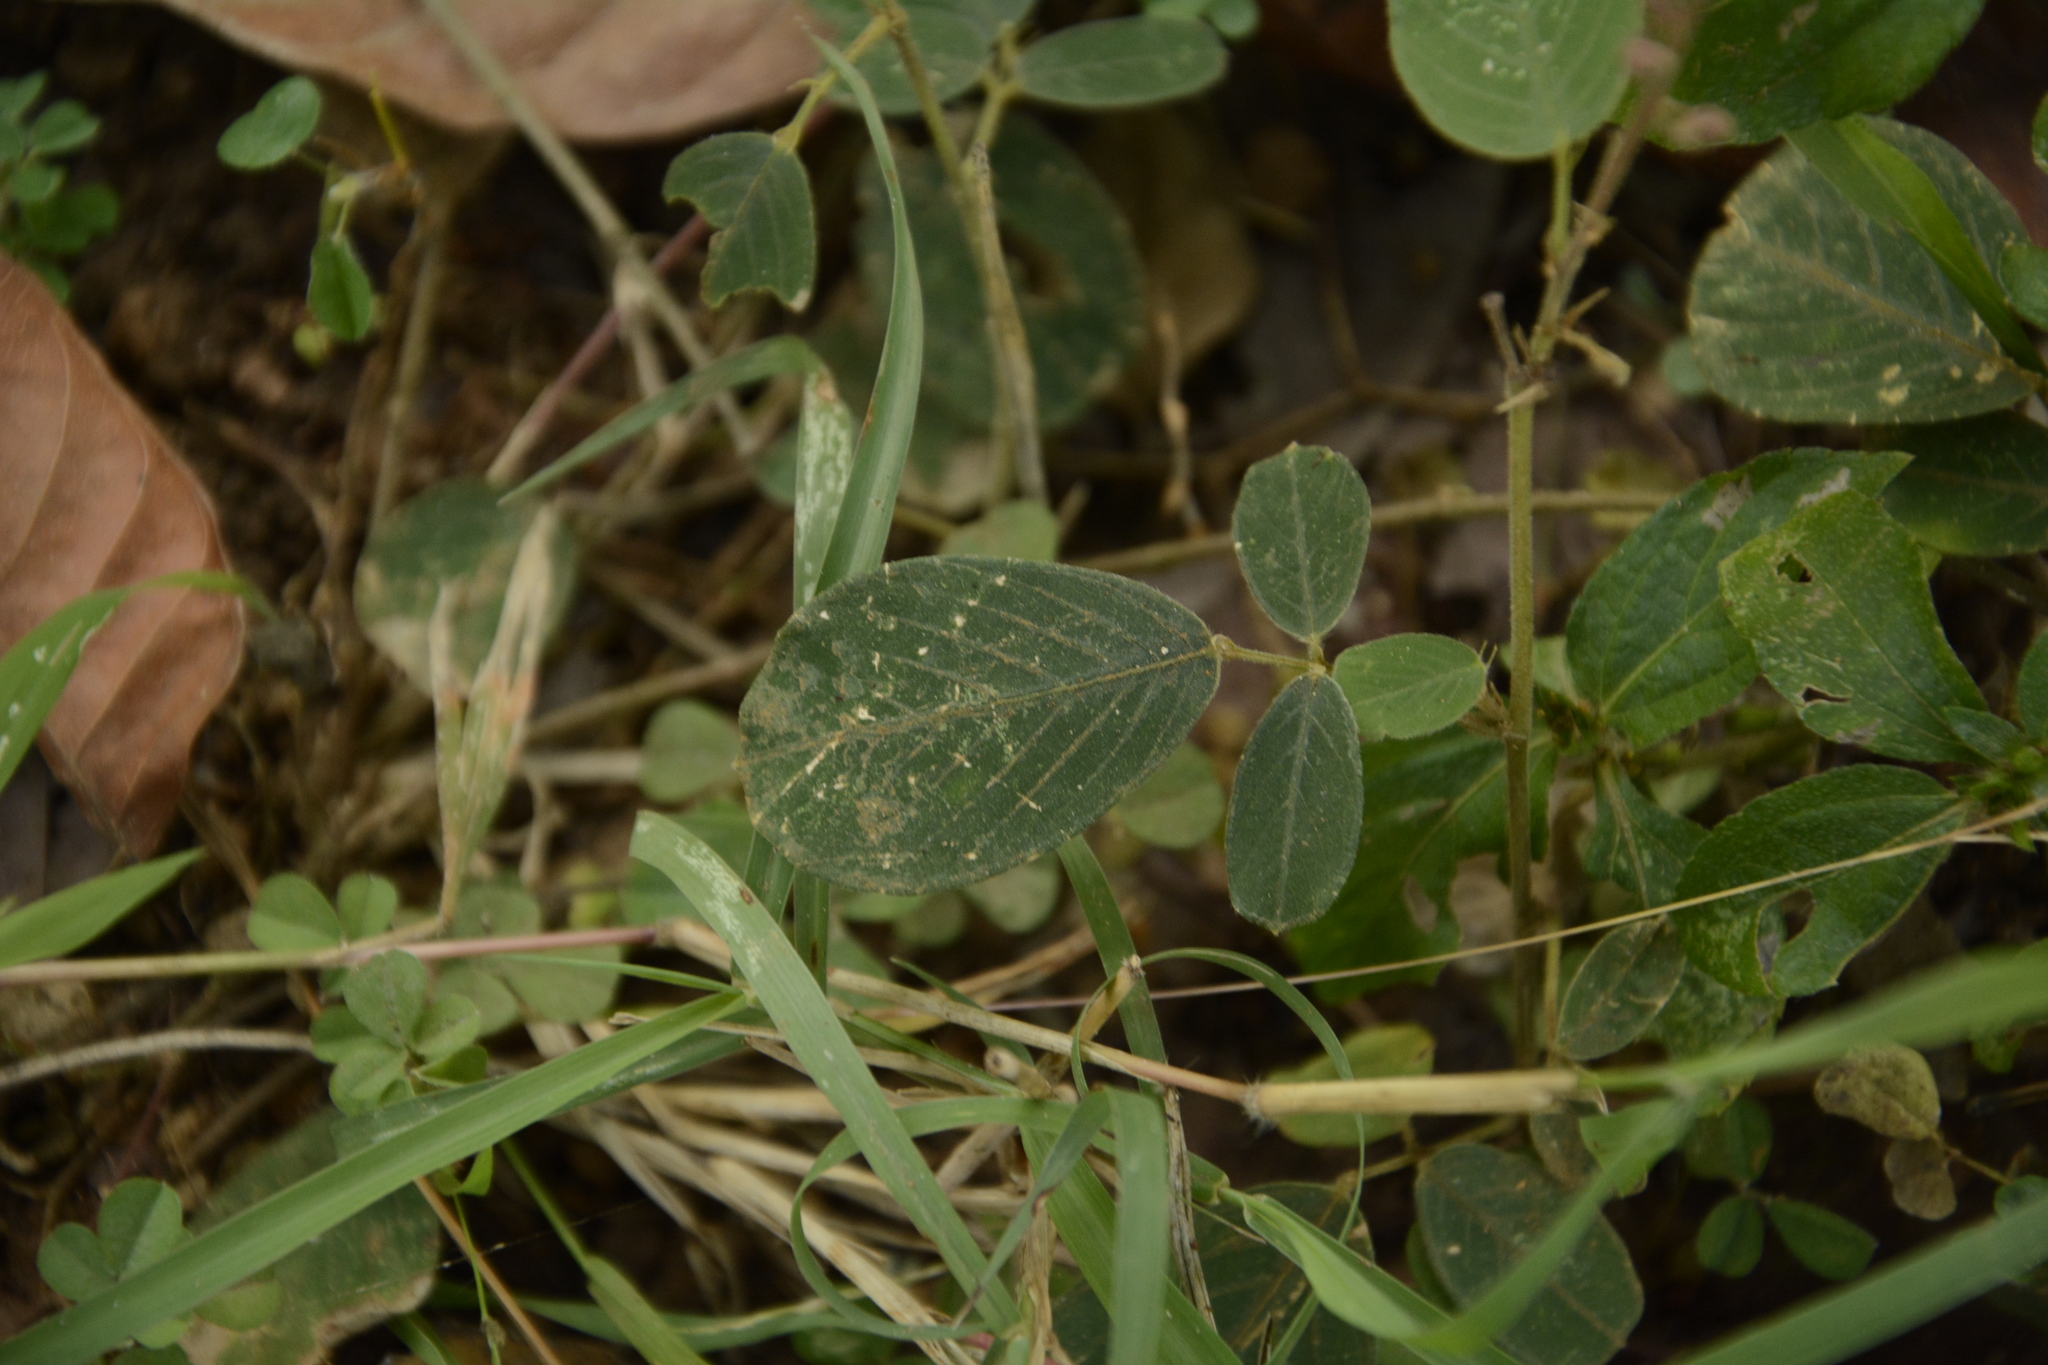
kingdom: Plantae
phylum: Tracheophyta
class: Magnoliopsida
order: Fabales
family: Fabaceae
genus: Uraria
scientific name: Uraria rufescens
